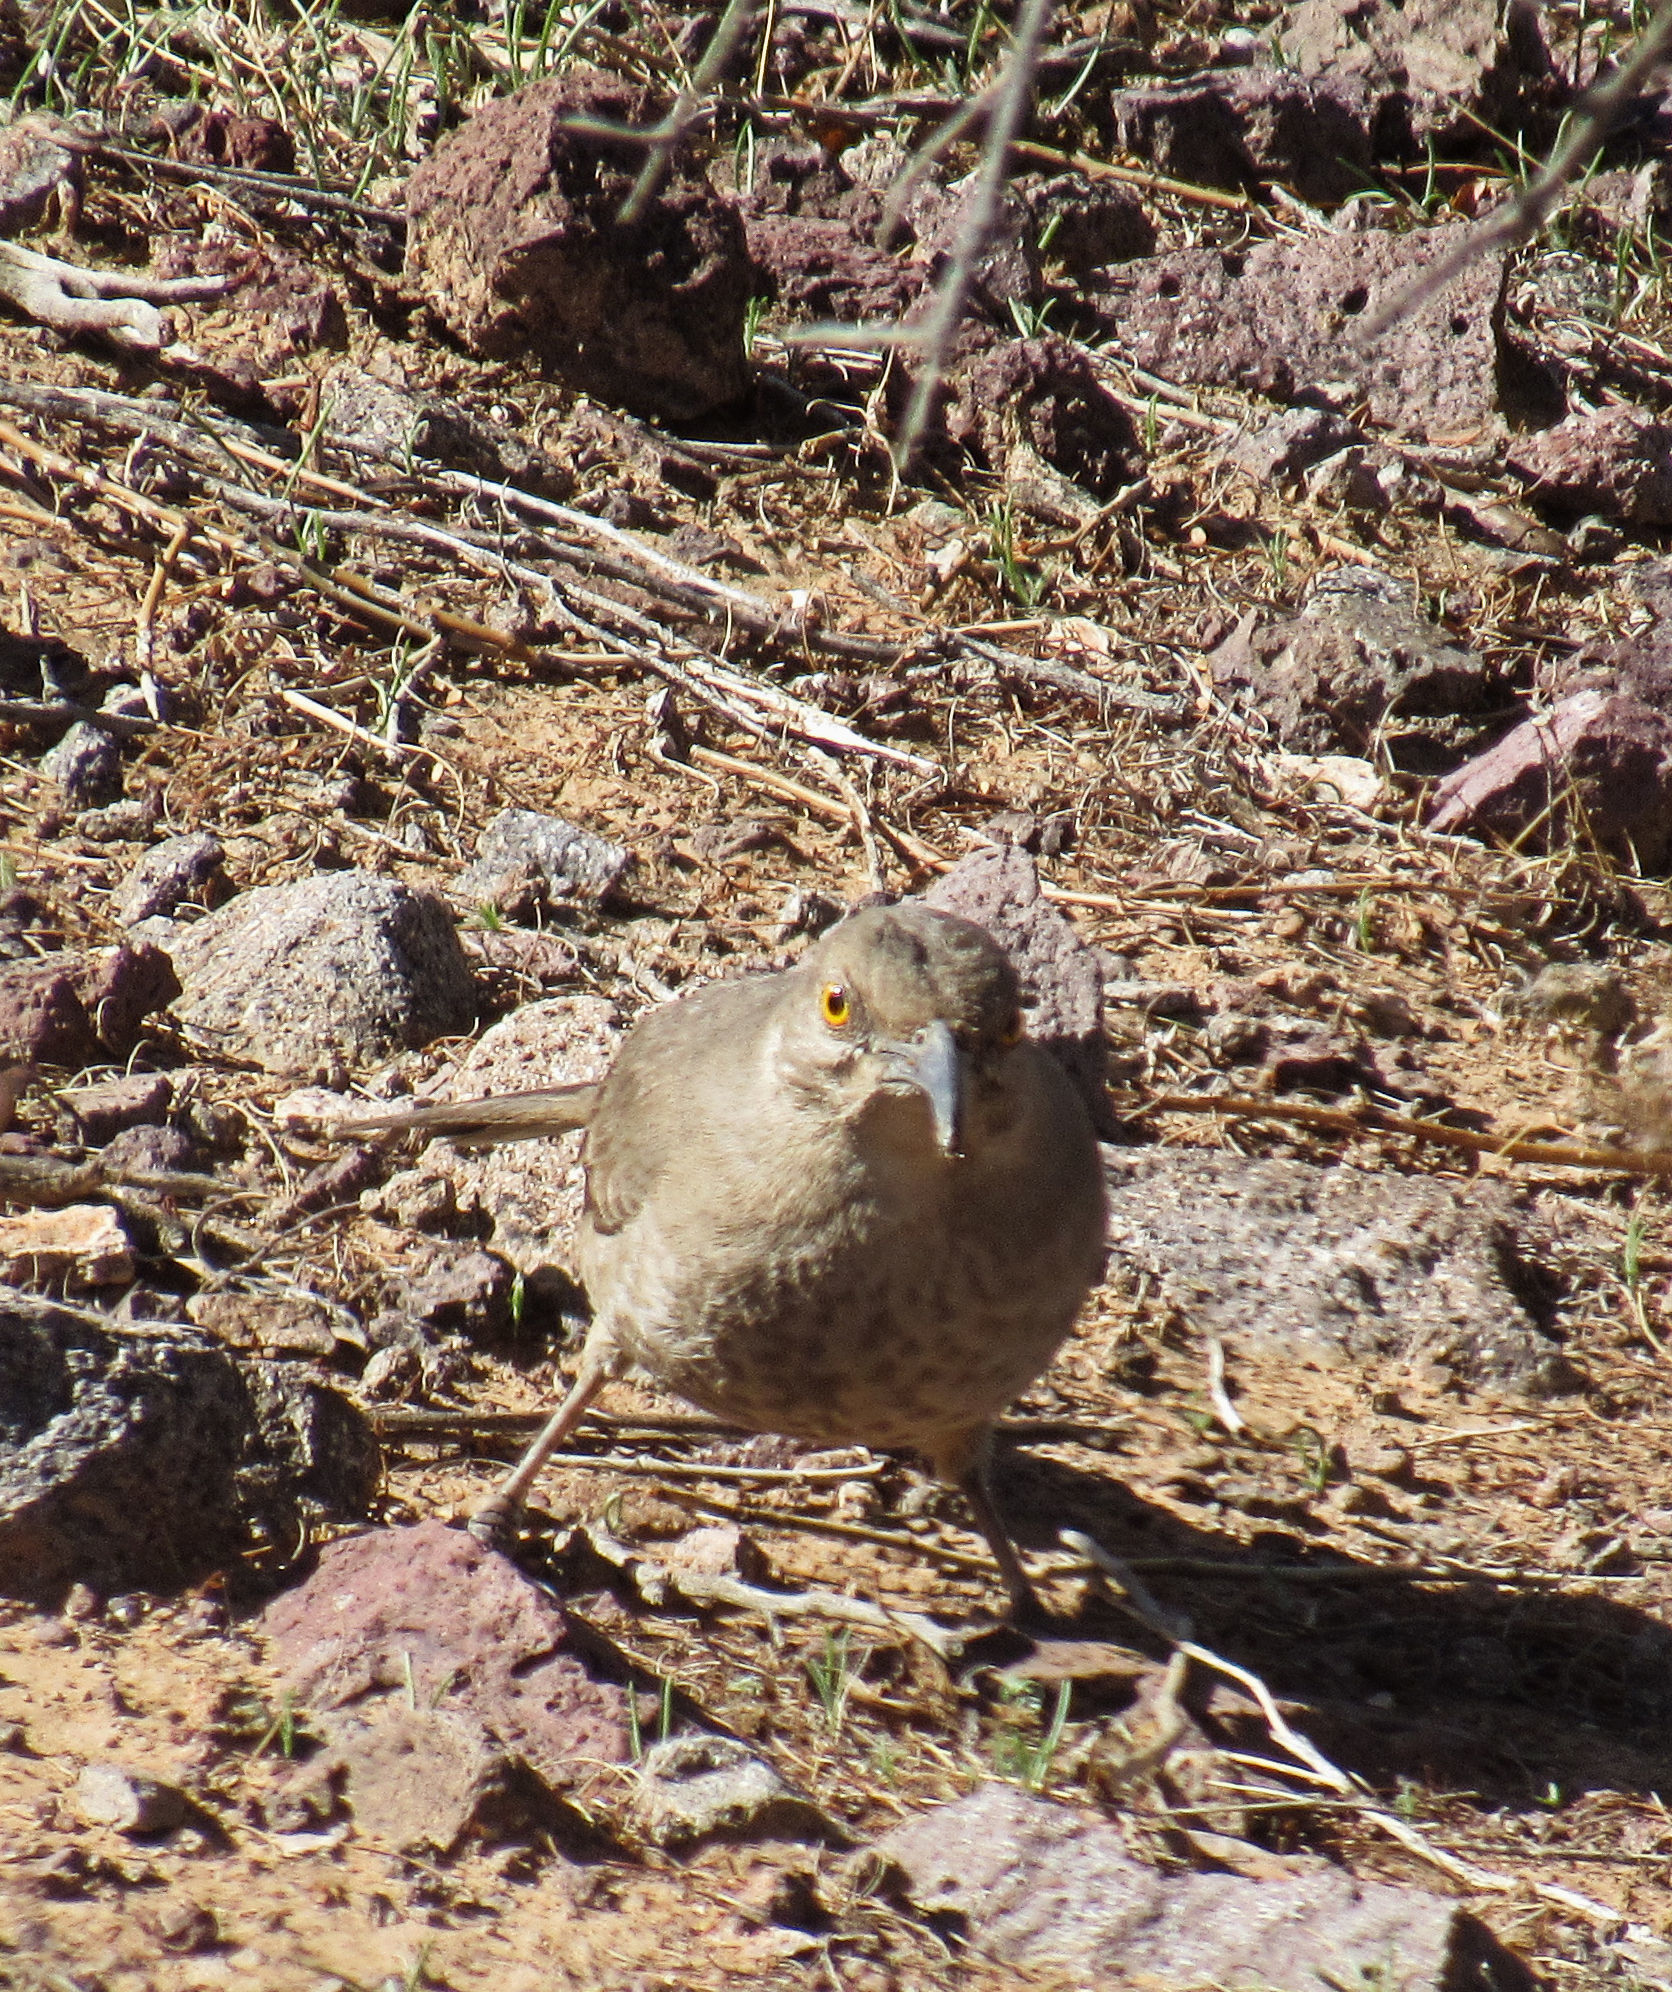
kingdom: Animalia
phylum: Chordata
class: Aves
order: Passeriformes
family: Mimidae
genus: Toxostoma
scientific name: Toxostoma curvirostre
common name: Curve-billed thrasher
